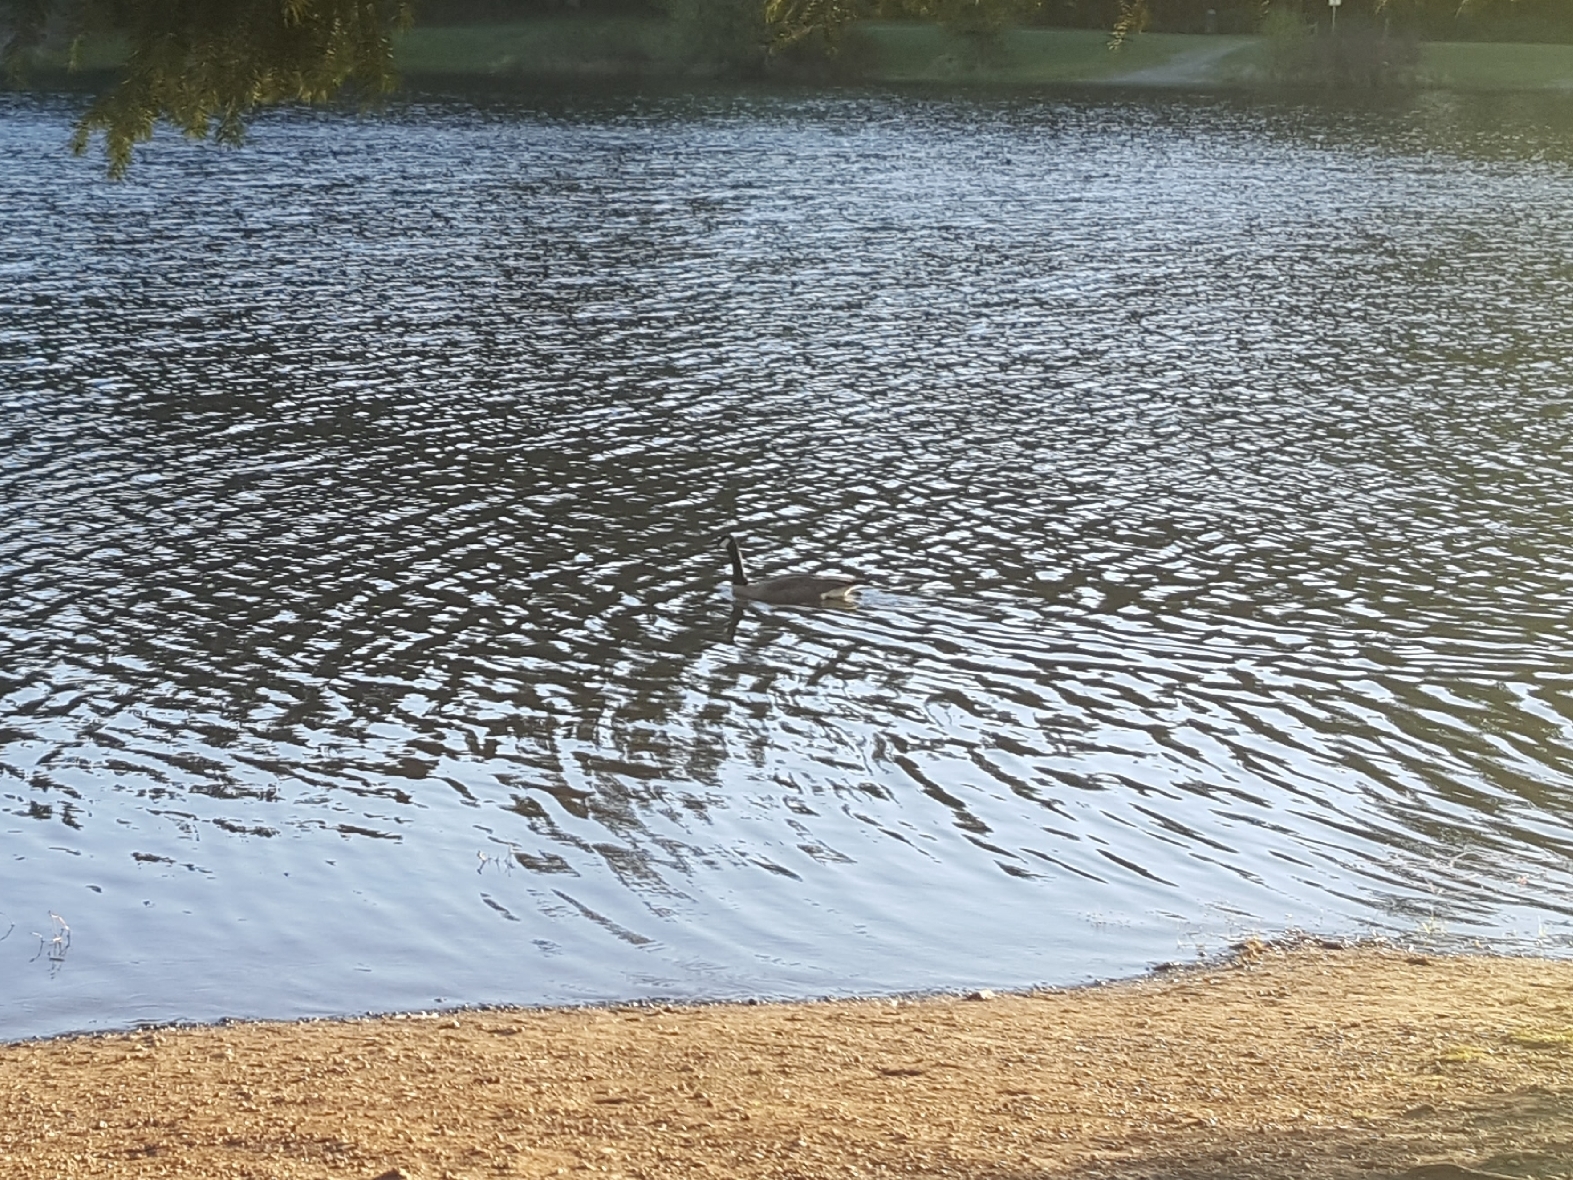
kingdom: Animalia
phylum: Chordata
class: Aves
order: Anseriformes
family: Anatidae
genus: Branta
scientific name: Branta canadensis
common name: Canada goose
